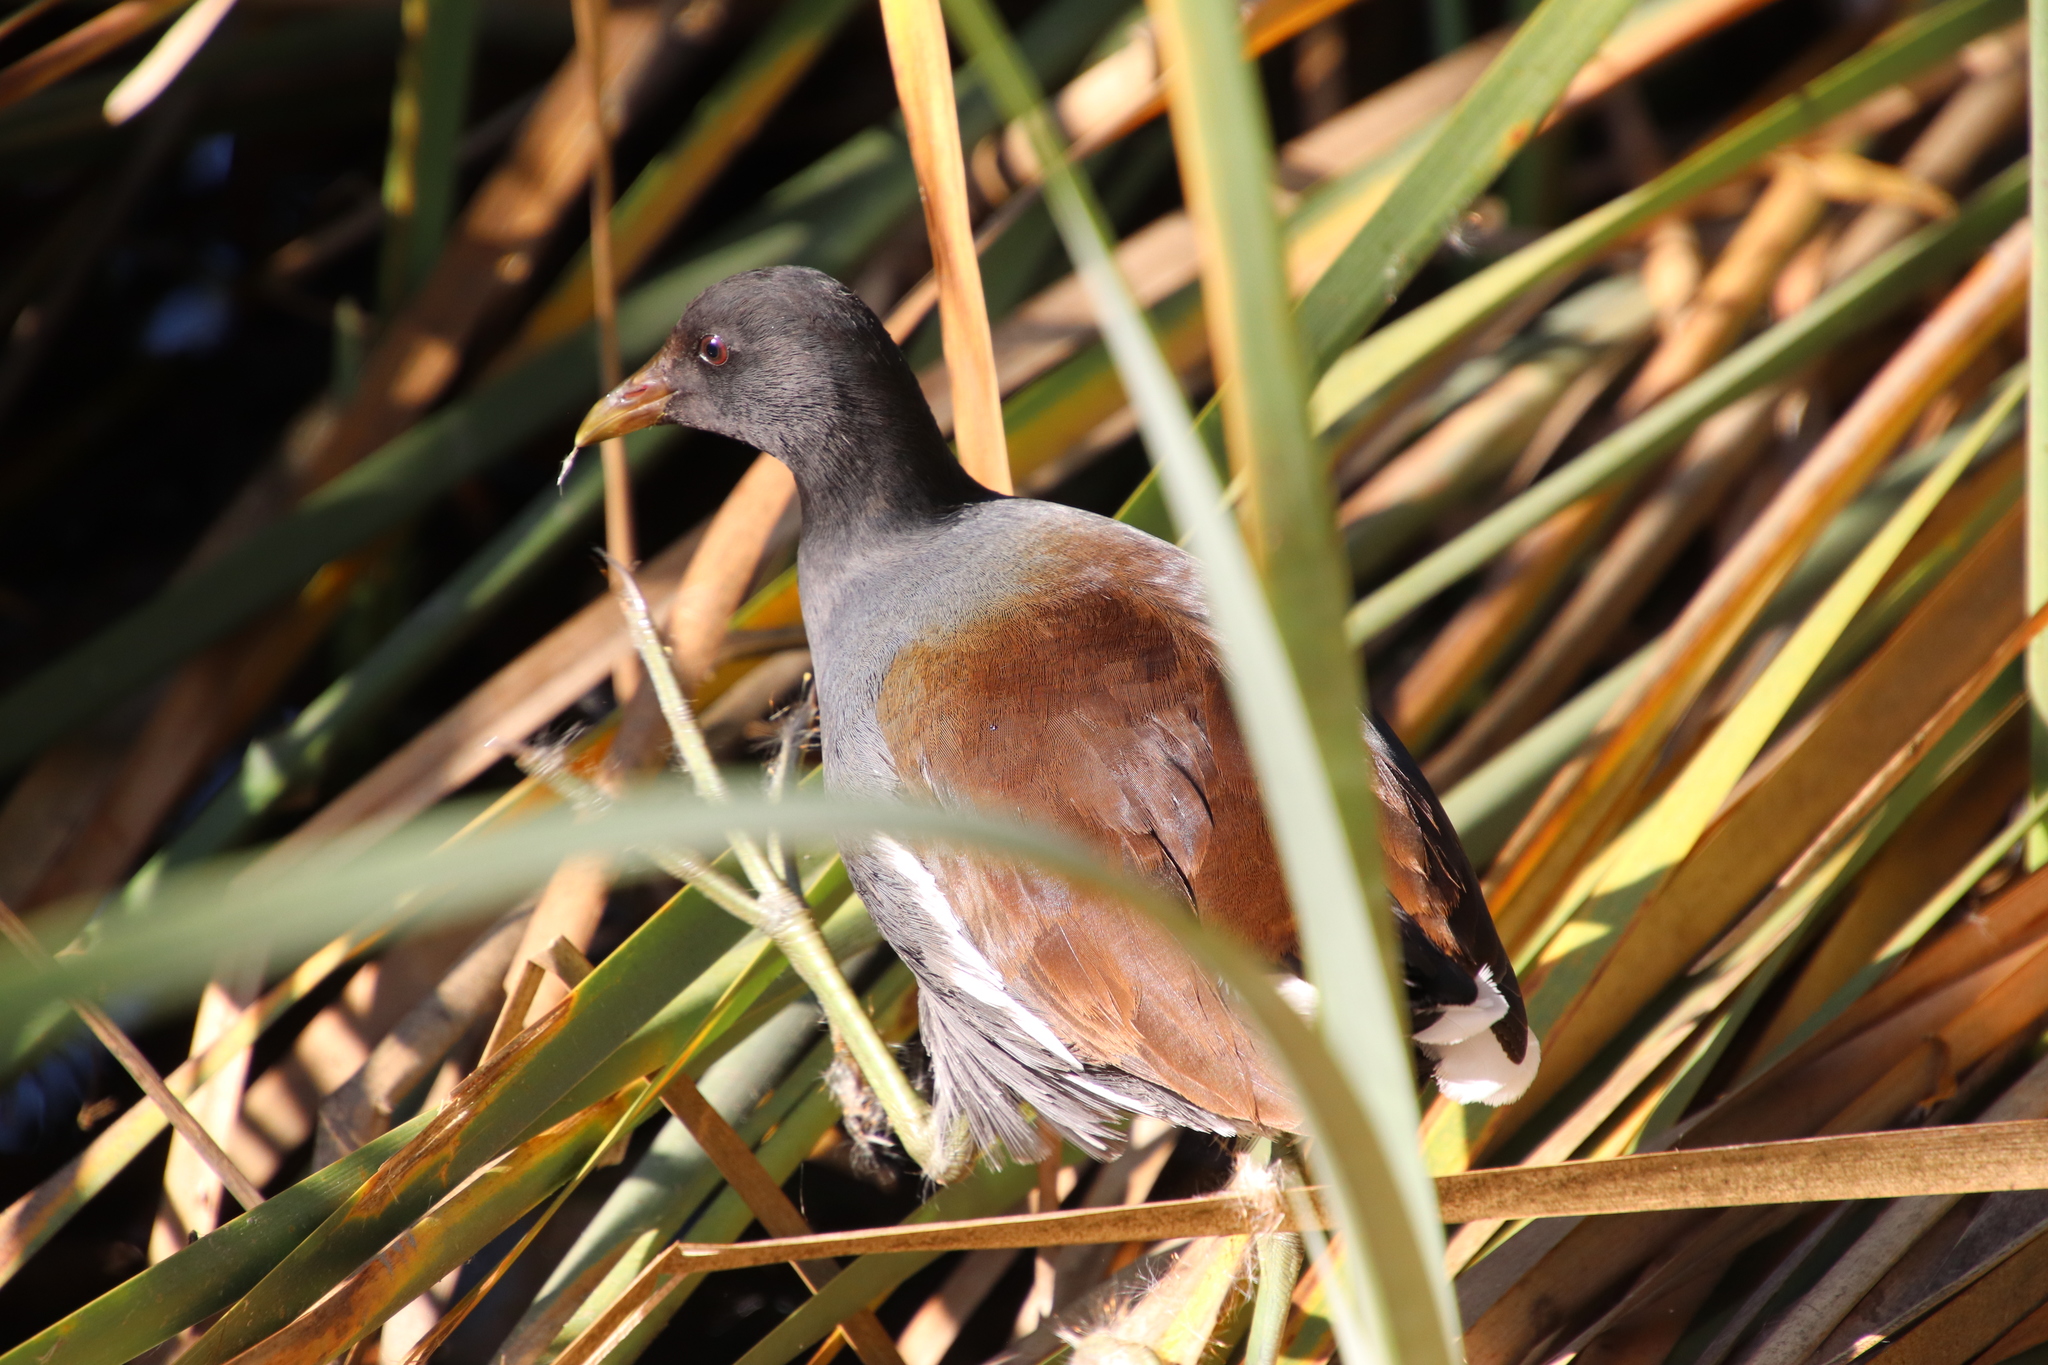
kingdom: Animalia
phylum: Chordata
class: Aves
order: Gruiformes
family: Rallidae
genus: Gallinula
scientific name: Gallinula chloropus
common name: Common moorhen
